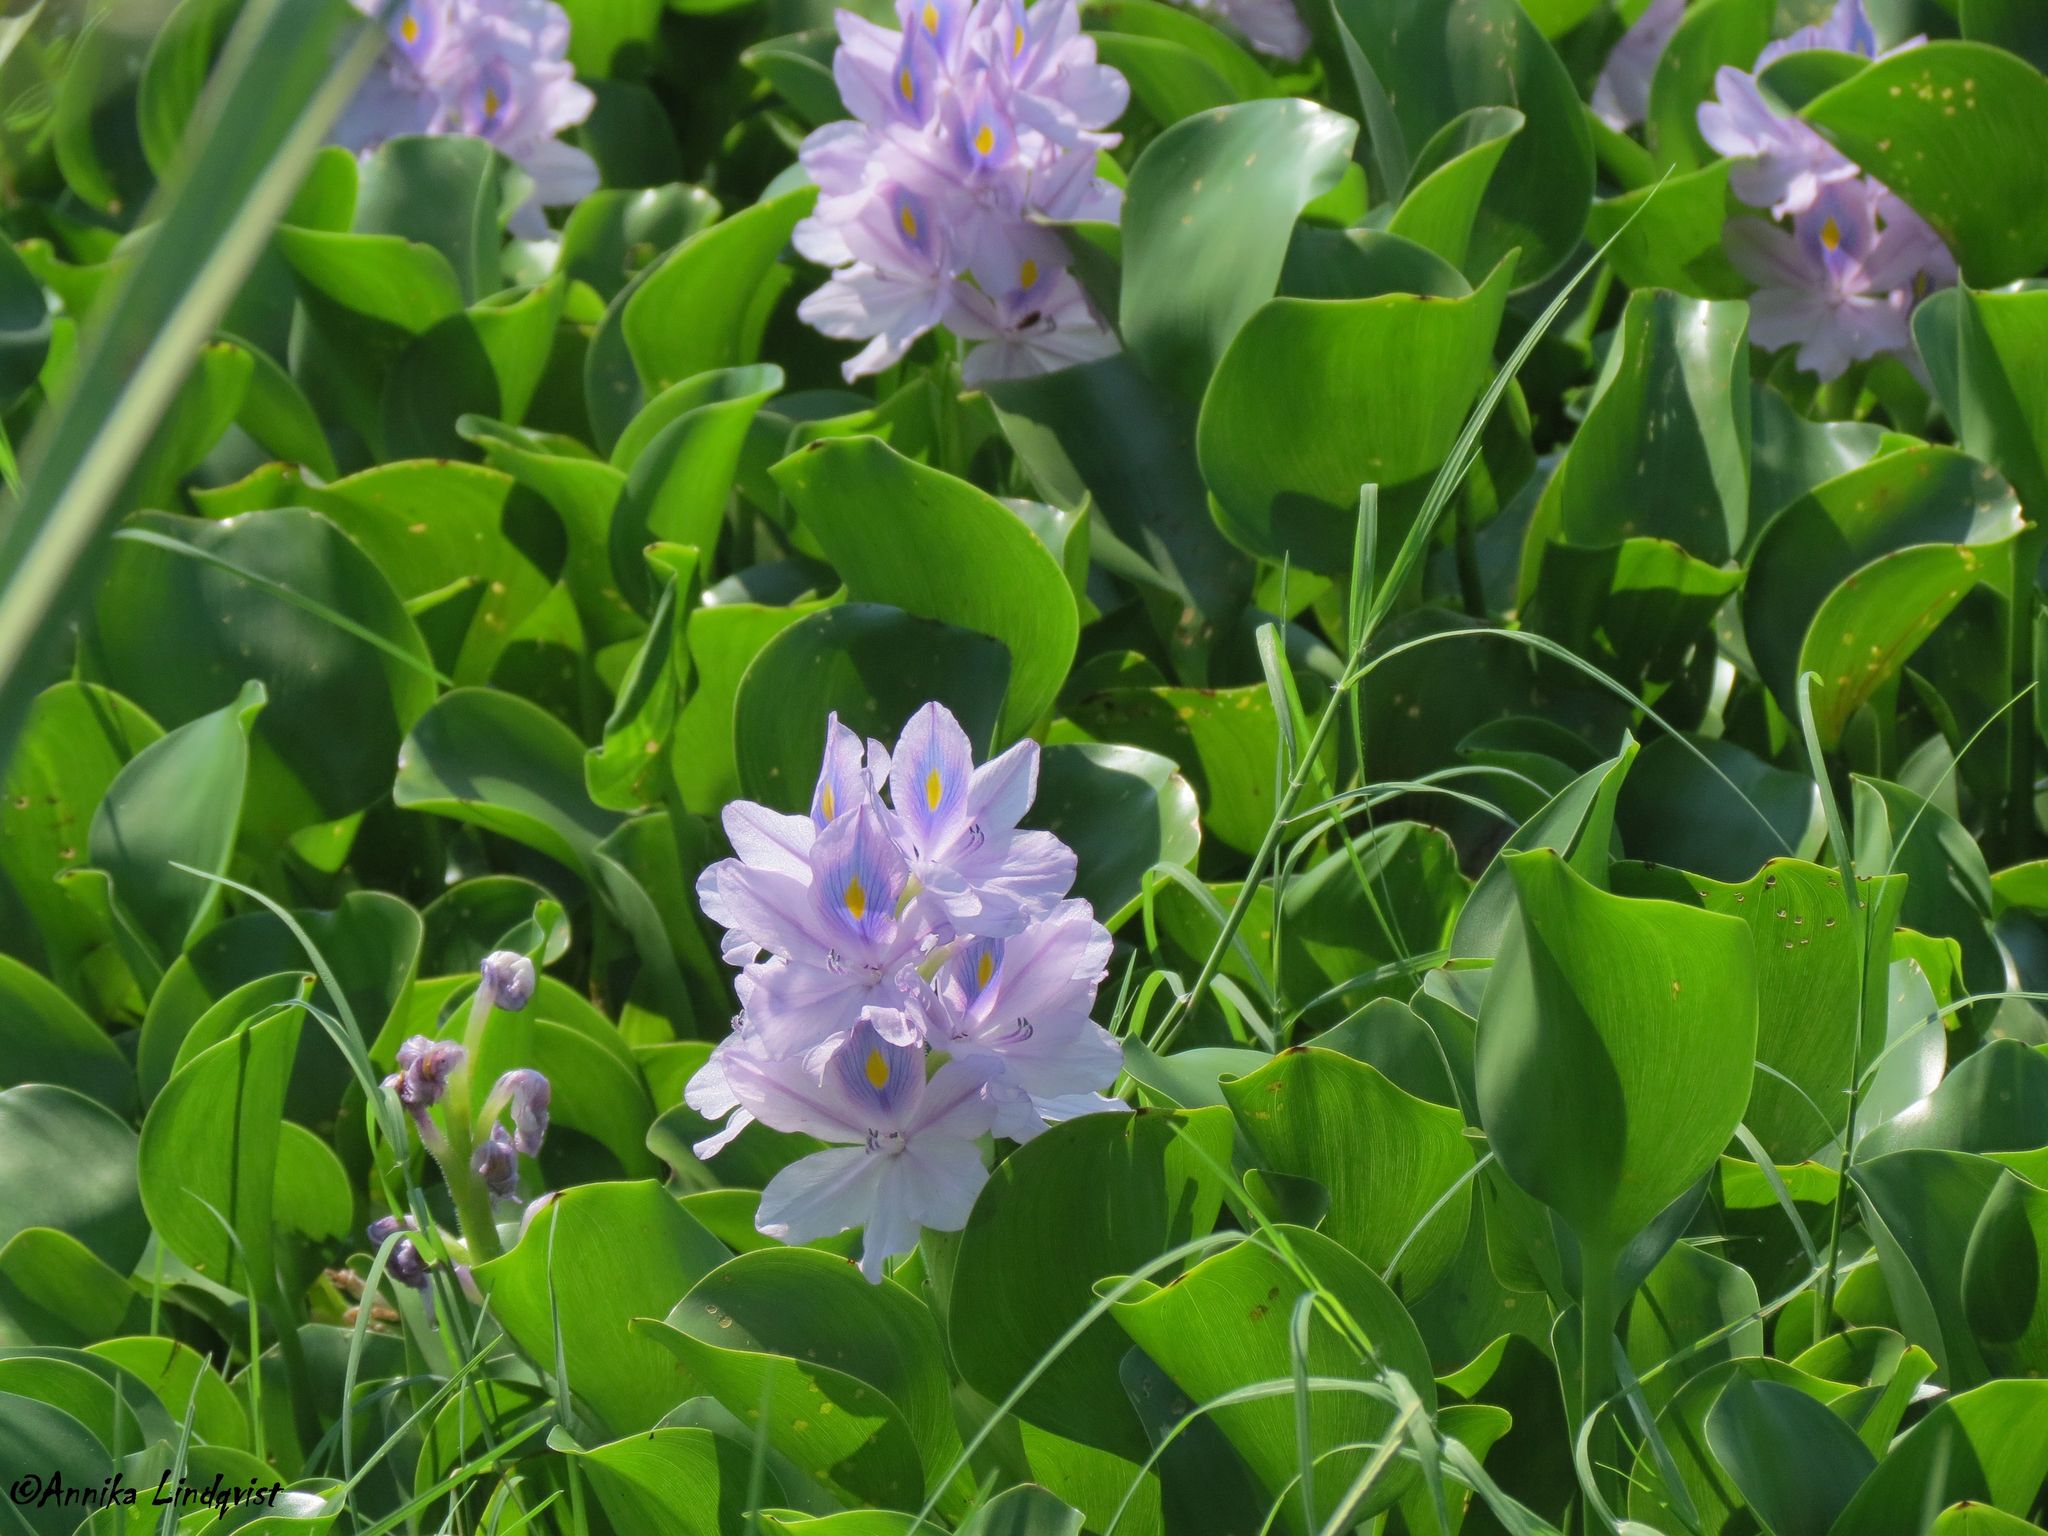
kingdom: Plantae
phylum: Tracheophyta
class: Liliopsida
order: Commelinales
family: Pontederiaceae
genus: Pontederia
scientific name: Pontederia crassipes
